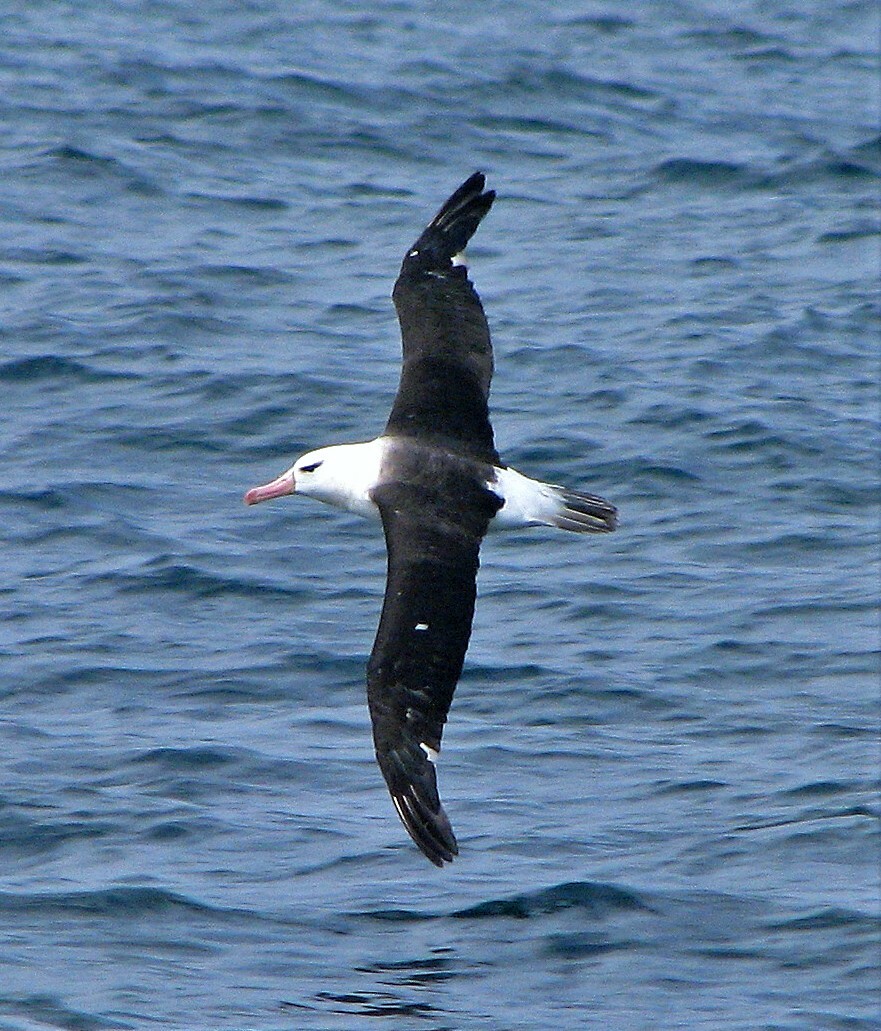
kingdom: Animalia
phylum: Chordata
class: Aves
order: Procellariiformes
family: Diomedeidae
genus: Thalassarche
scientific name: Thalassarche melanophris
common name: Black-browed albatross
